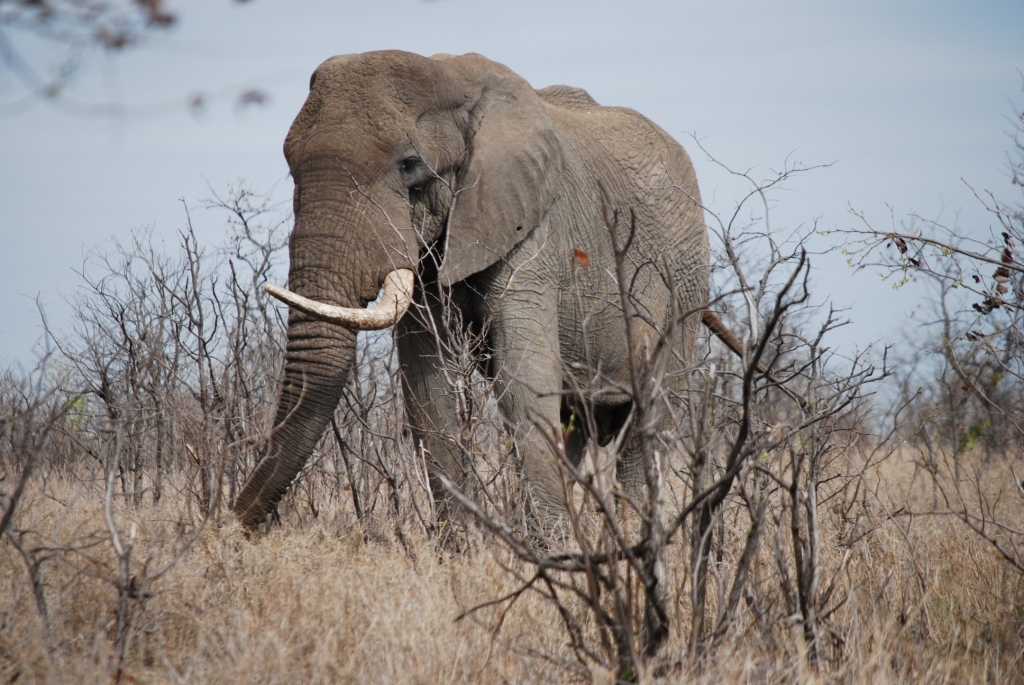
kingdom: Animalia
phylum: Chordata
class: Mammalia
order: Proboscidea
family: Elephantidae
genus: Loxodonta
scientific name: Loxodonta africana
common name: African elephant
